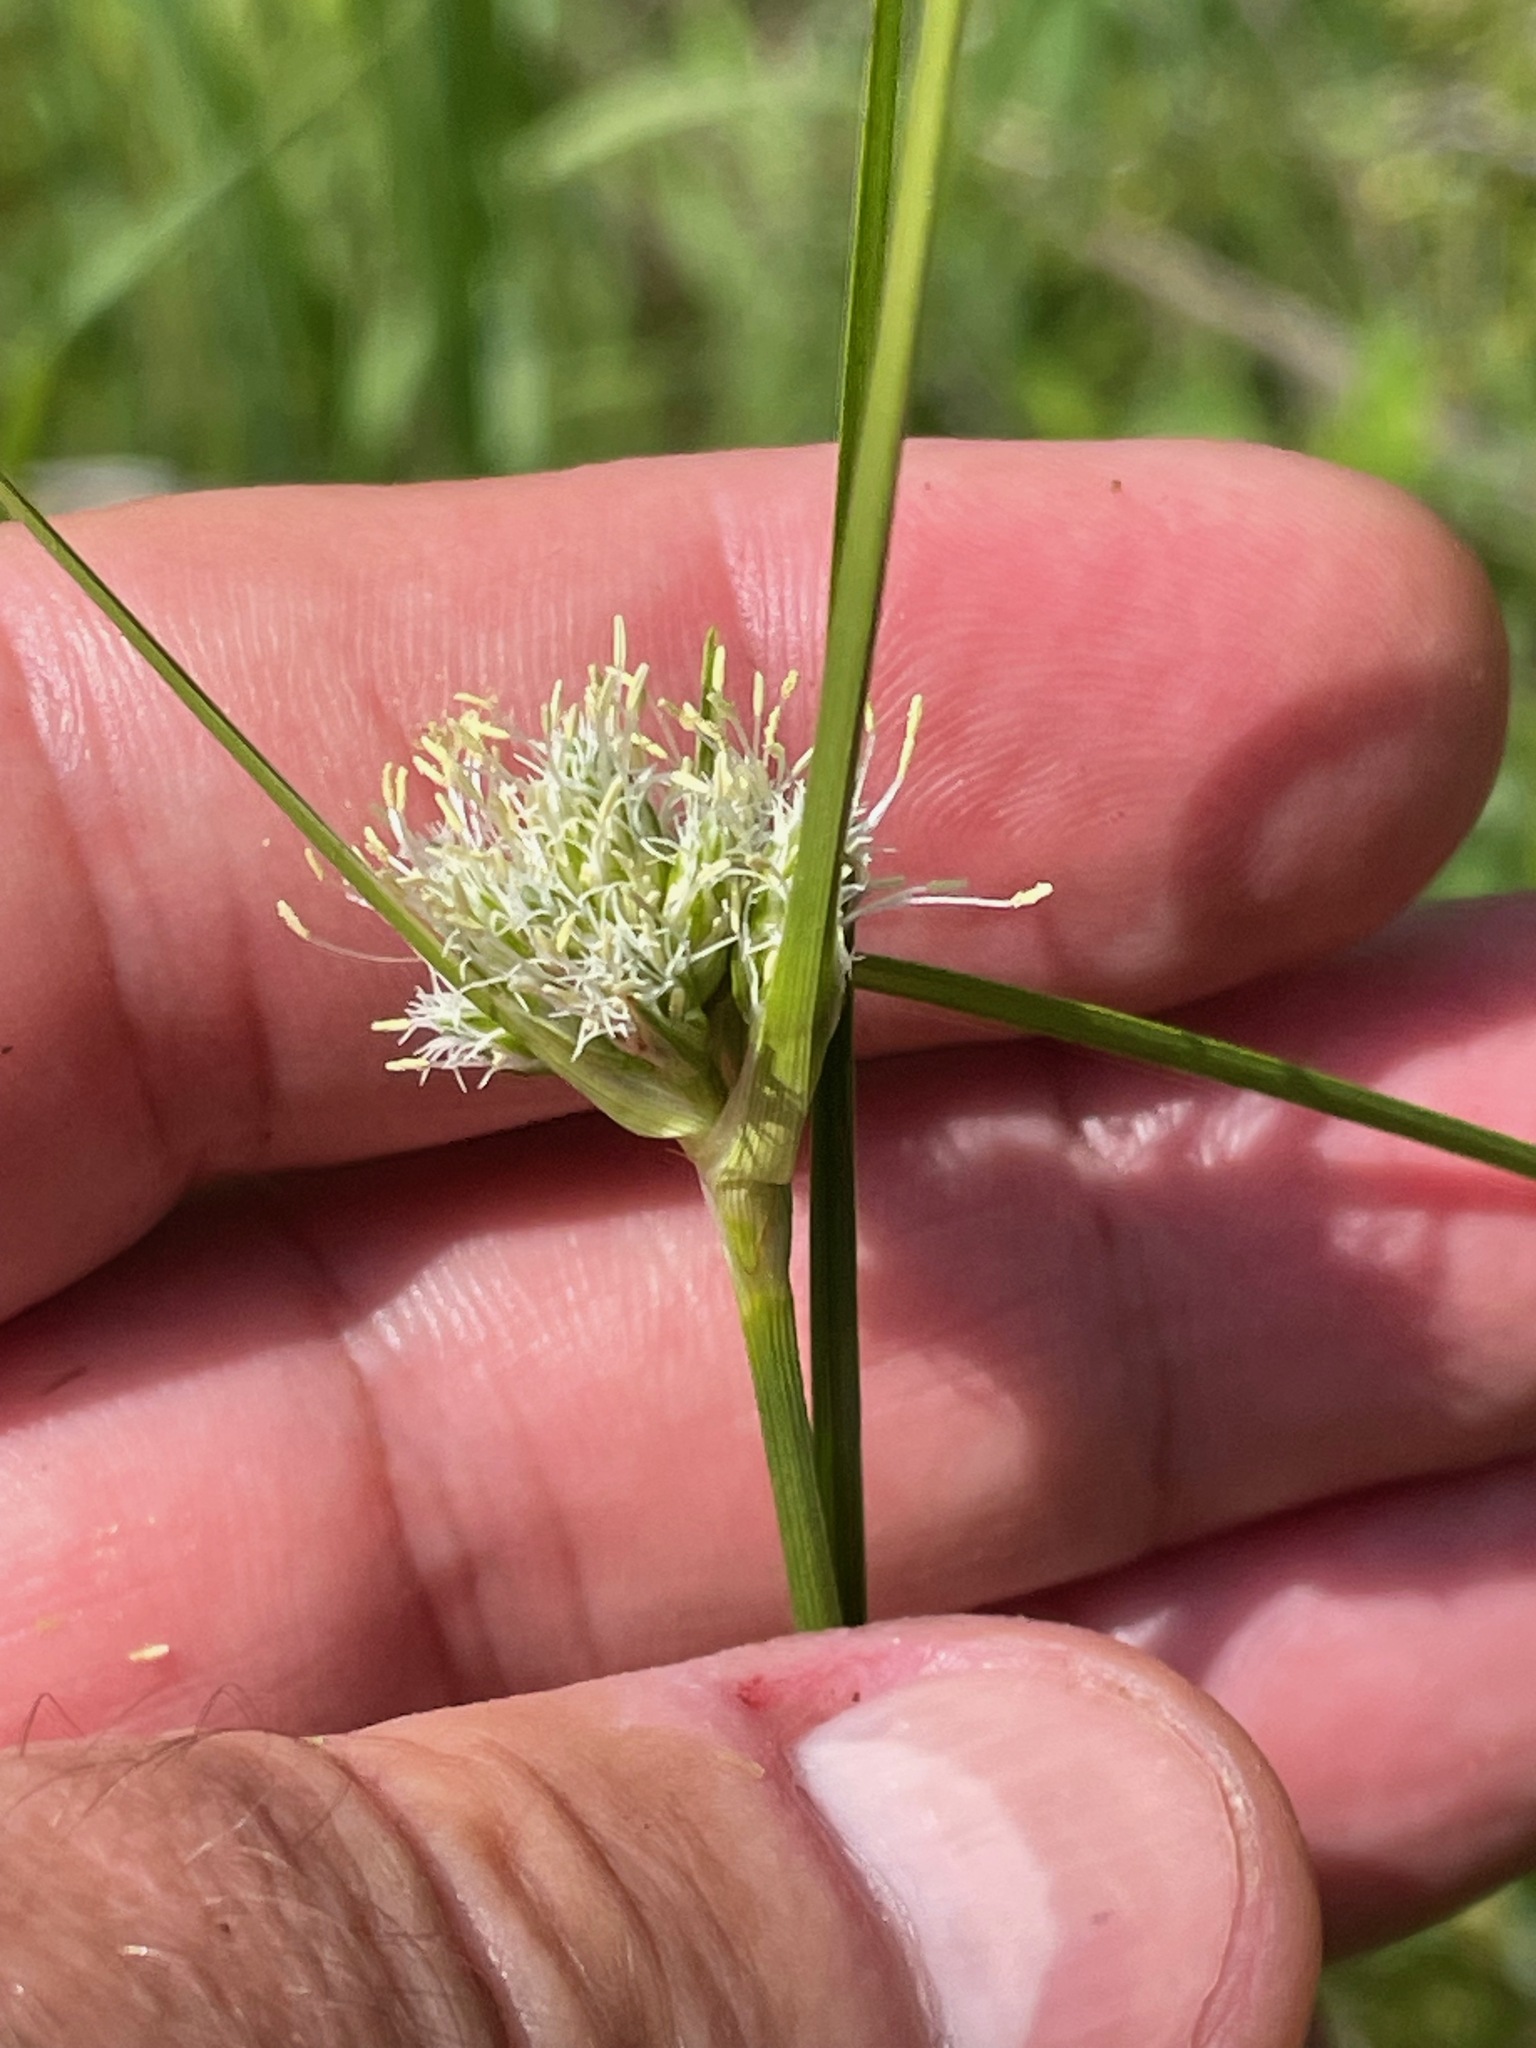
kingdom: Plantae
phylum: Tracheophyta
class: Liliopsida
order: Poales
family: Cyperaceae
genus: Eriophorum
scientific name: Eriophorum virginicum
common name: Tawny cottongrass
